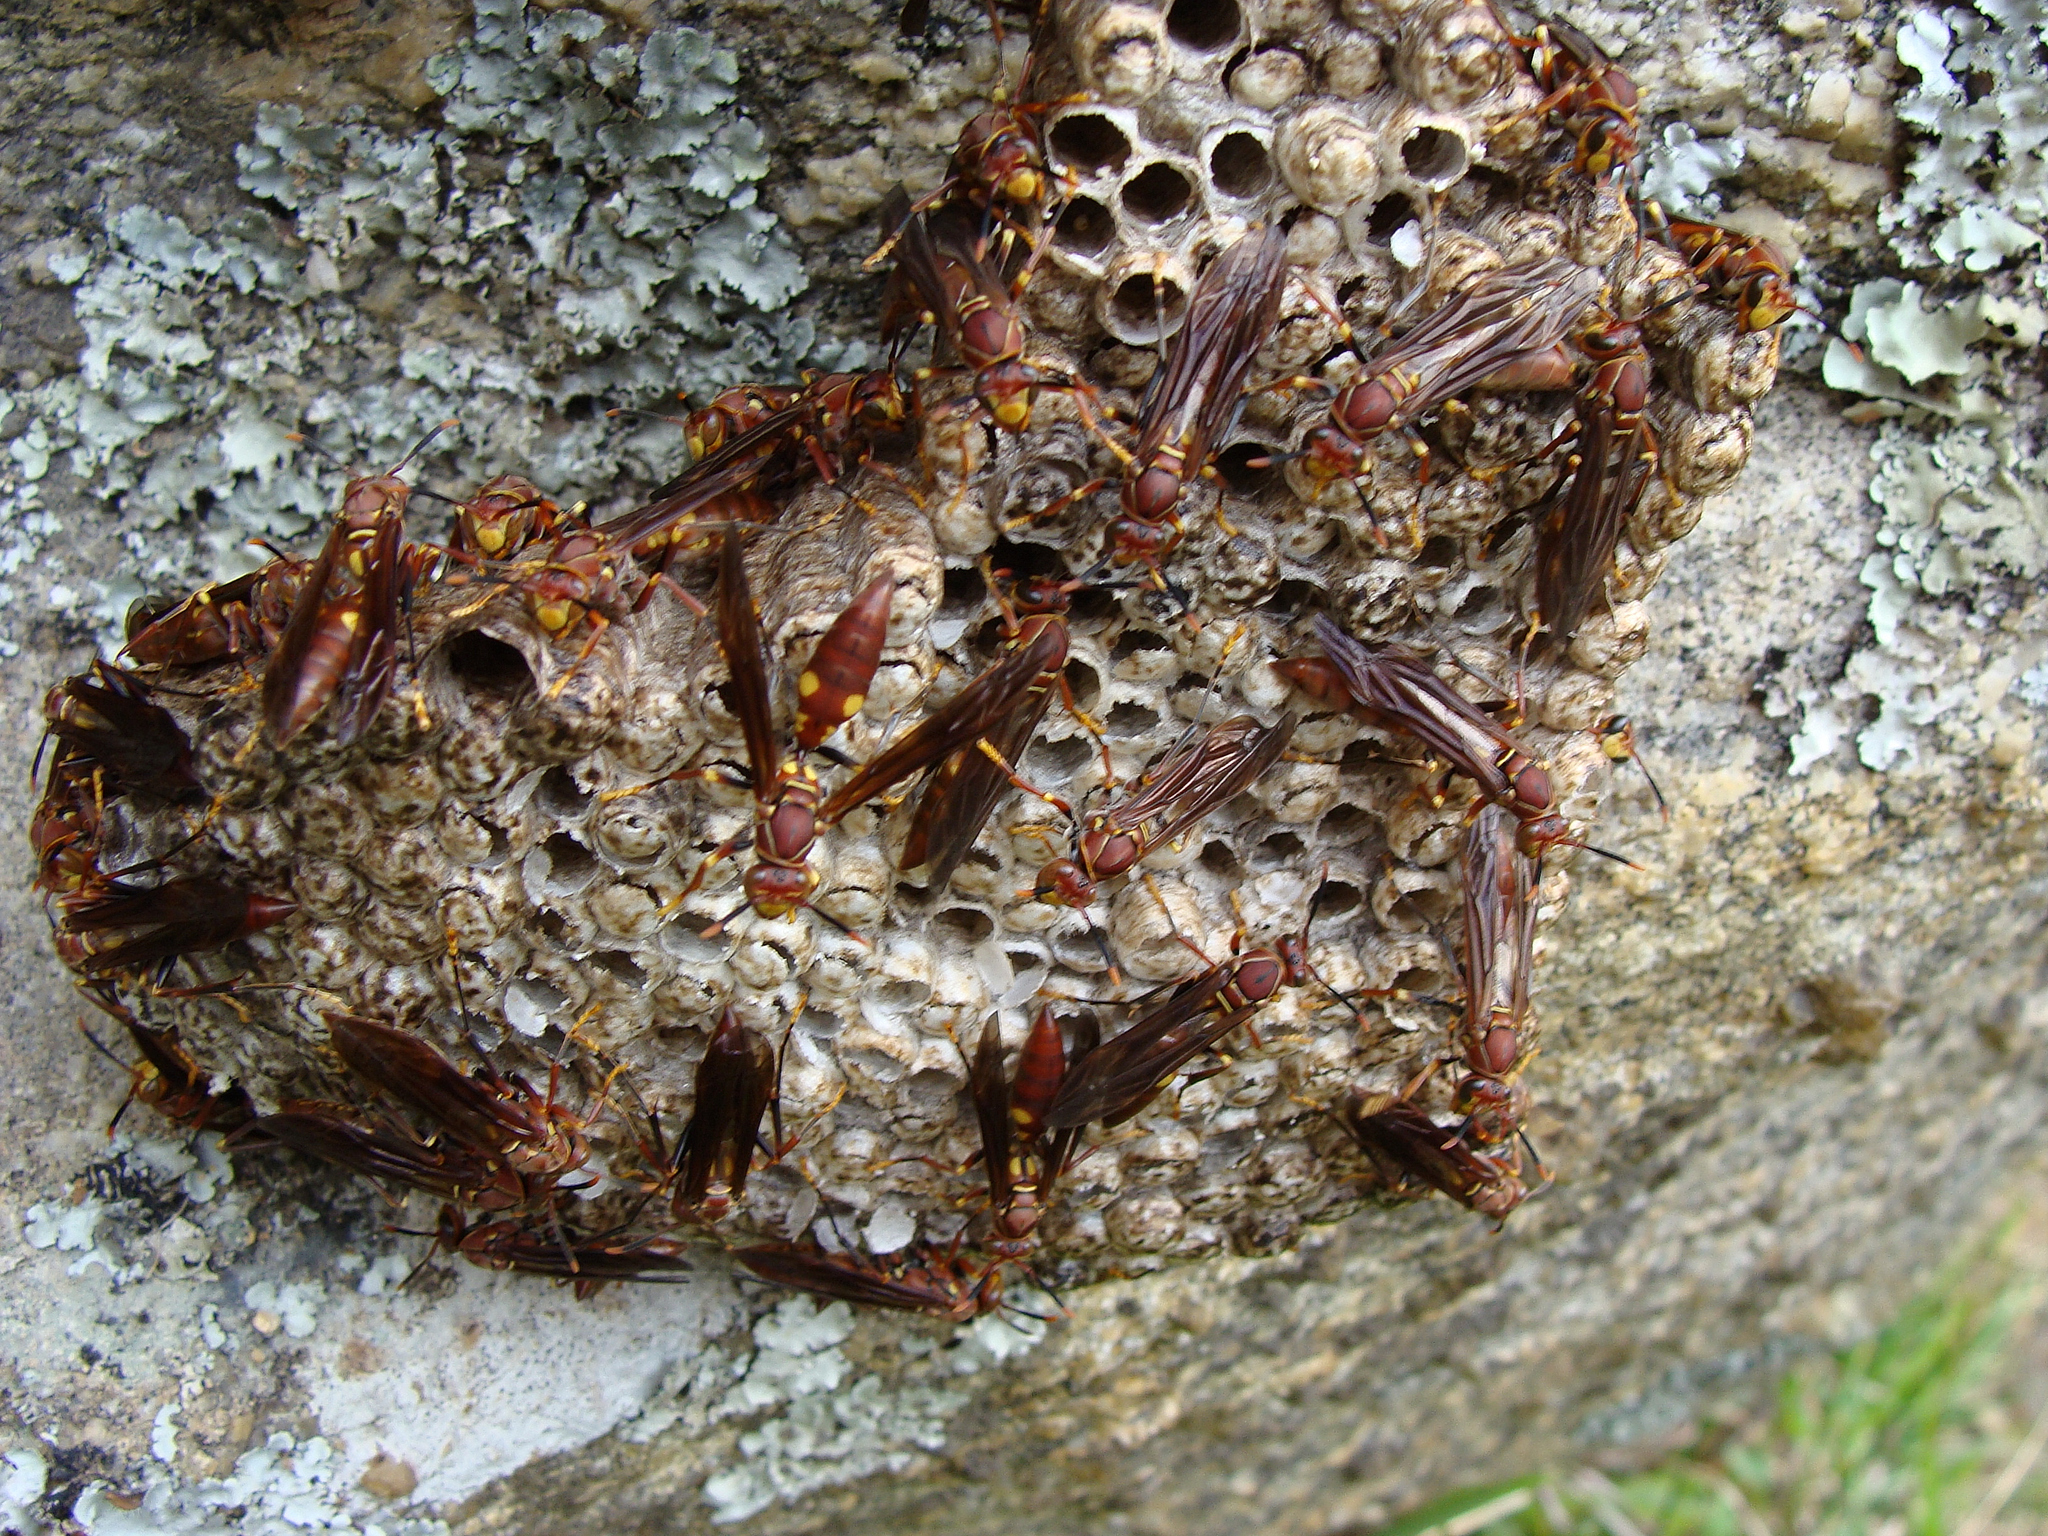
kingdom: Animalia
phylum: Arthropoda
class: Insecta
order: Hymenoptera
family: Eumenidae
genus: Polistes
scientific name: Polistes simillimus
